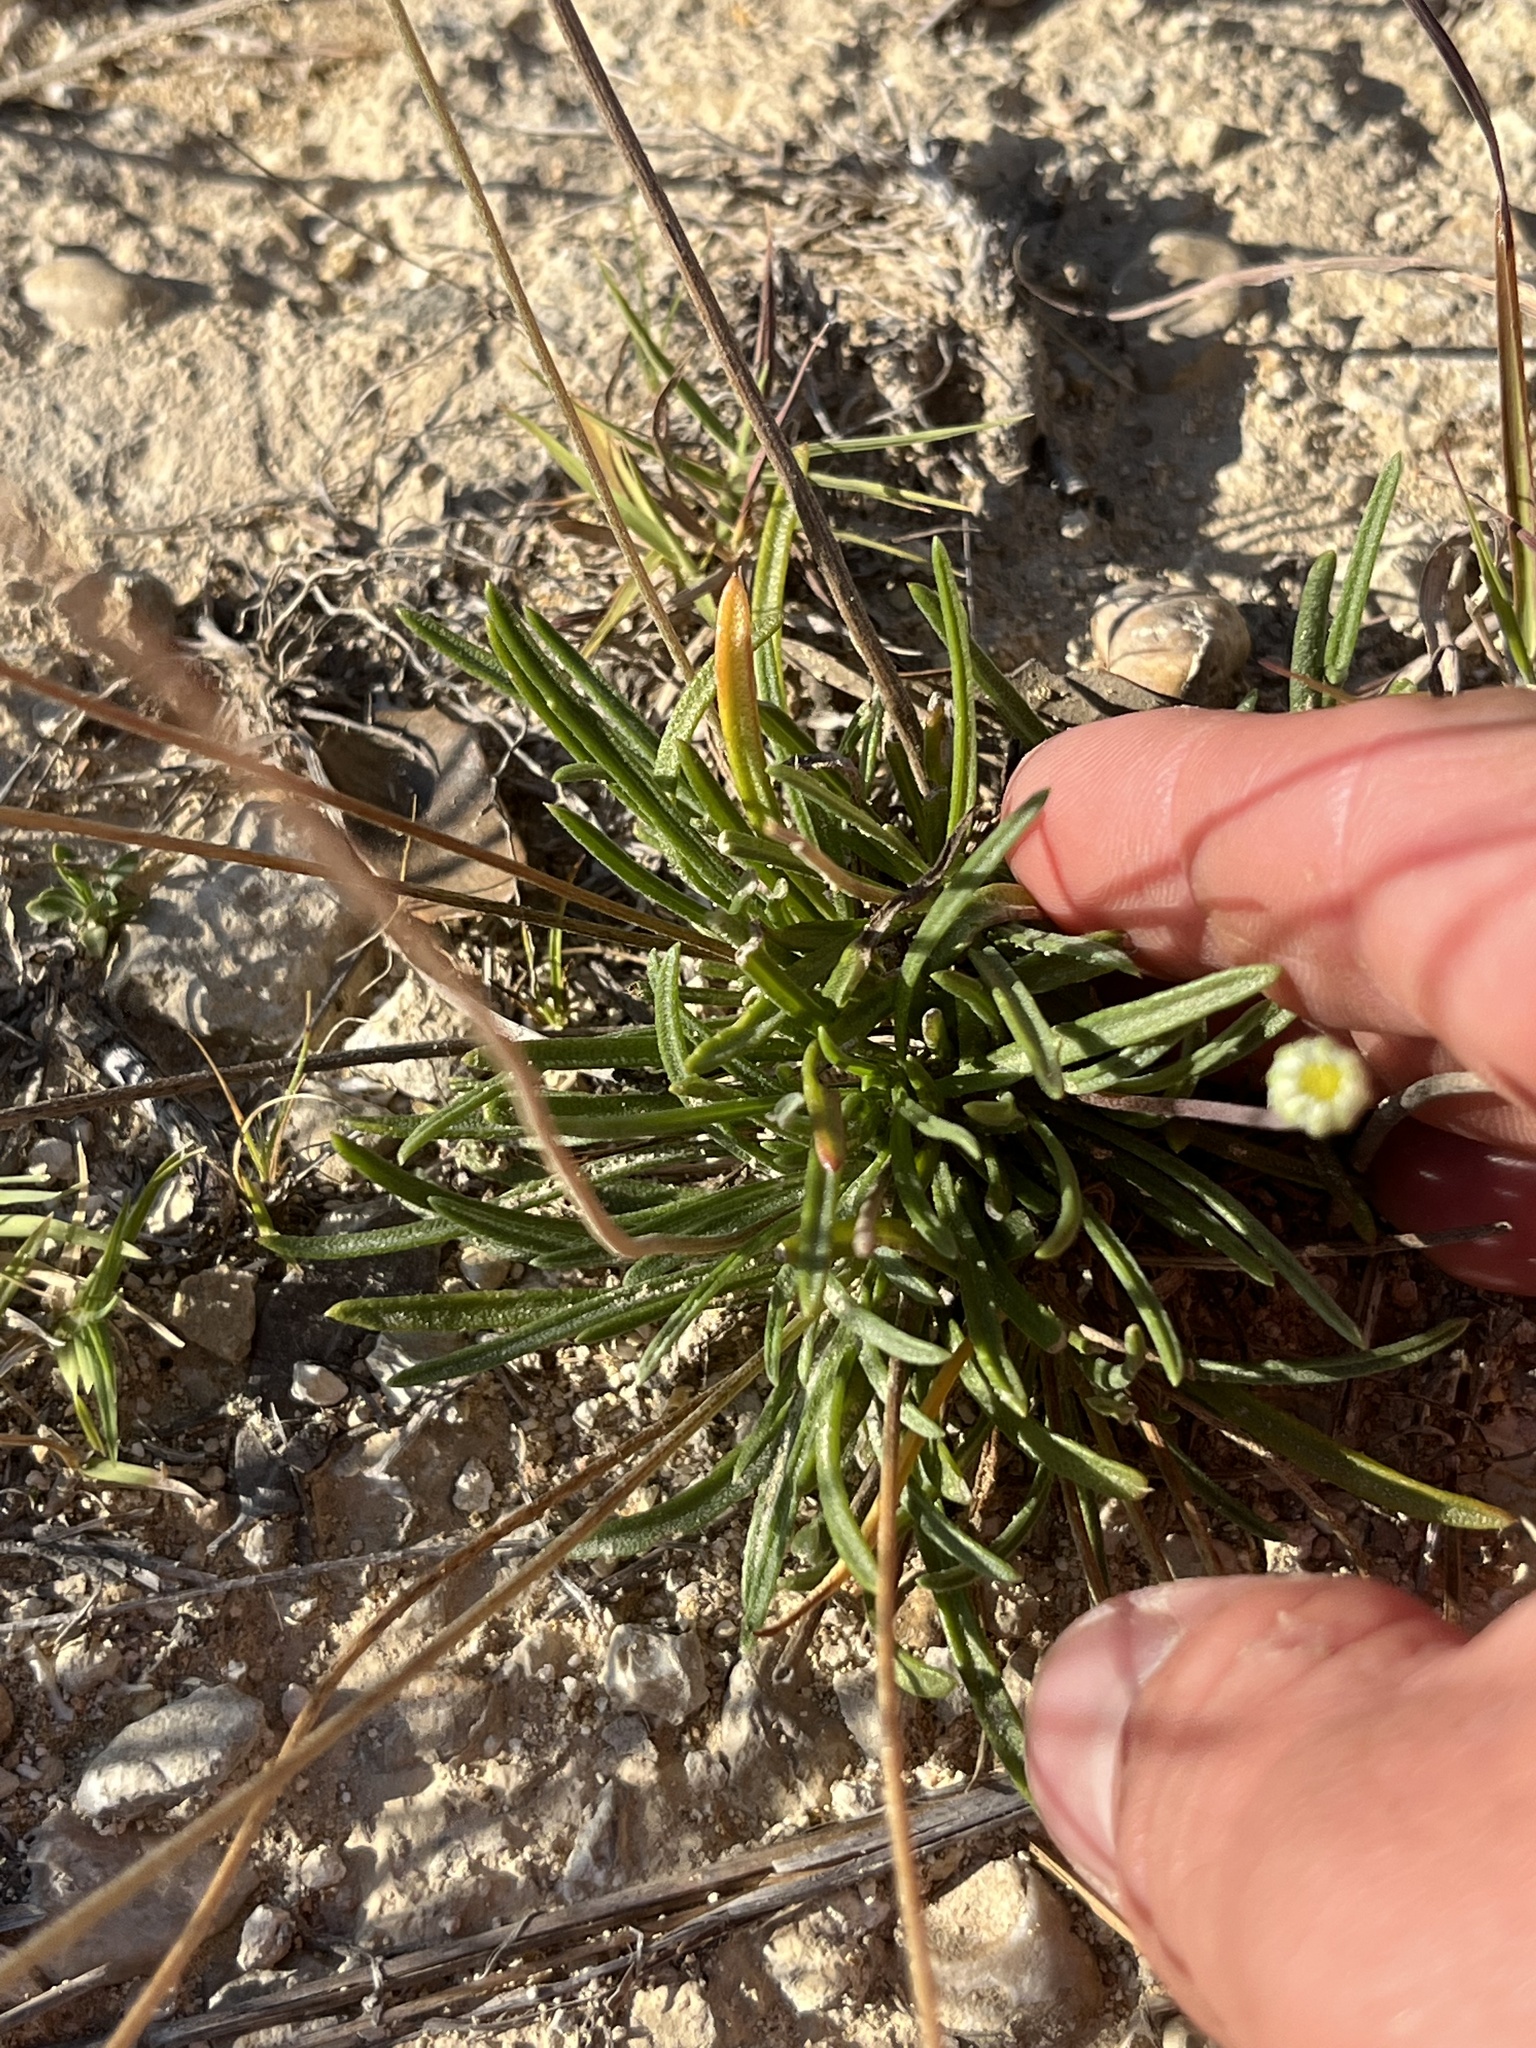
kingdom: Plantae
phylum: Tracheophyta
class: Magnoliopsida
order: Asterales
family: Asteraceae
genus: Tetraneuris
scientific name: Tetraneuris scaposa
